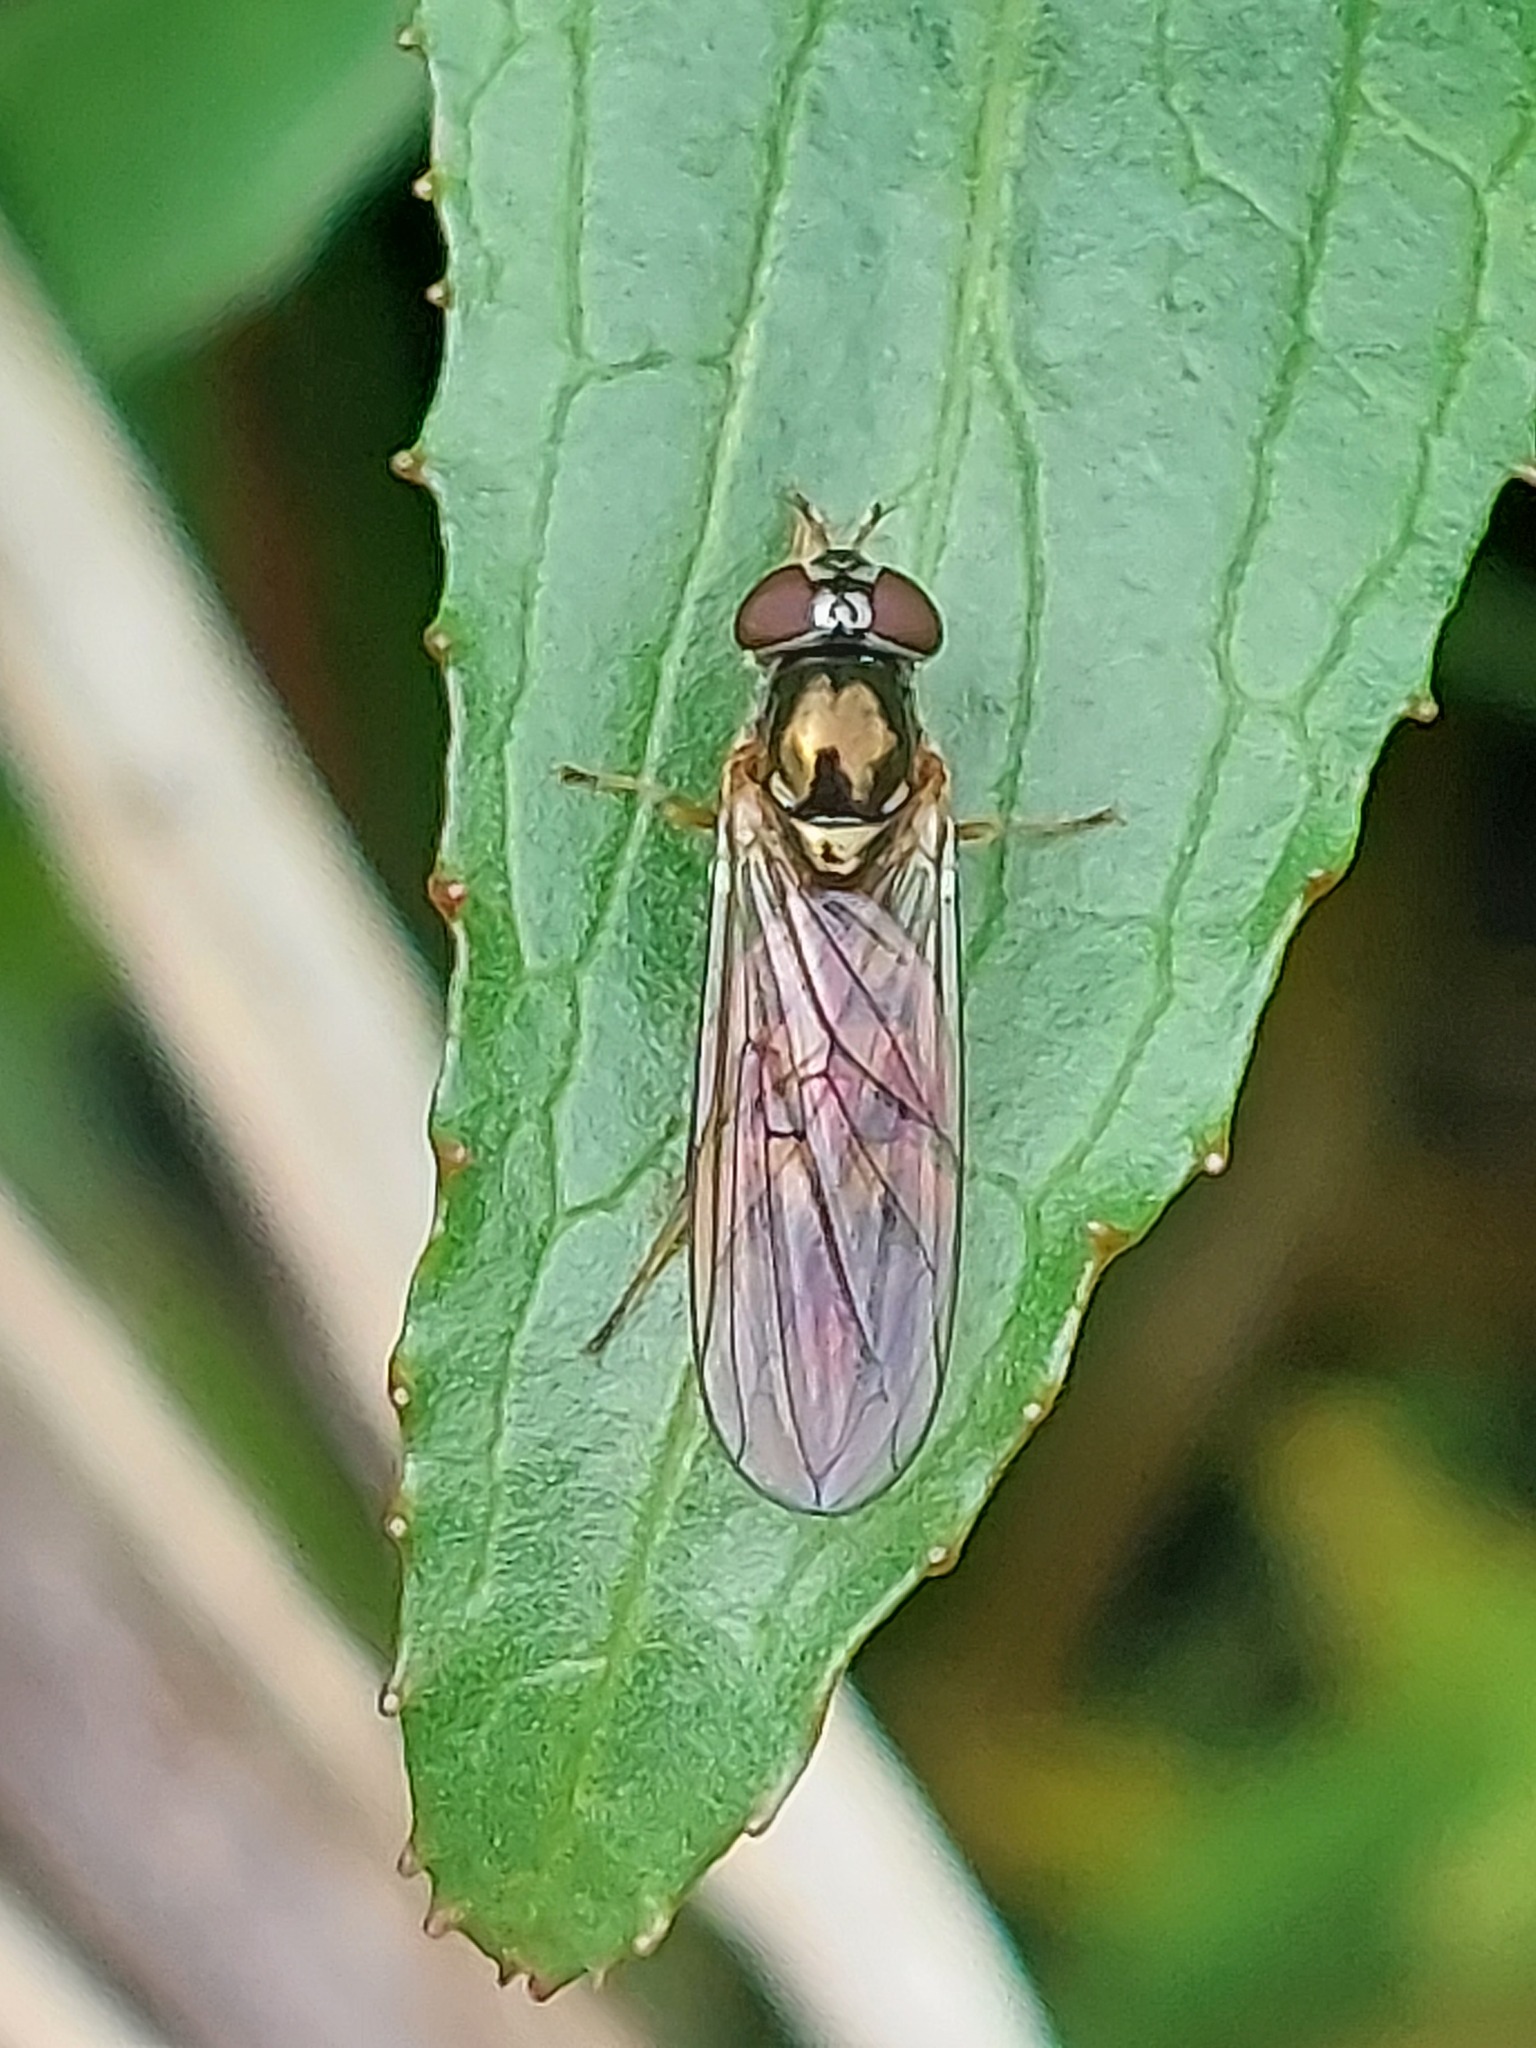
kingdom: Animalia
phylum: Arthropoda
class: Insecta
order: Diptera
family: Syrphidae
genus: Melanostoma
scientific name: Melanostoma scalare
